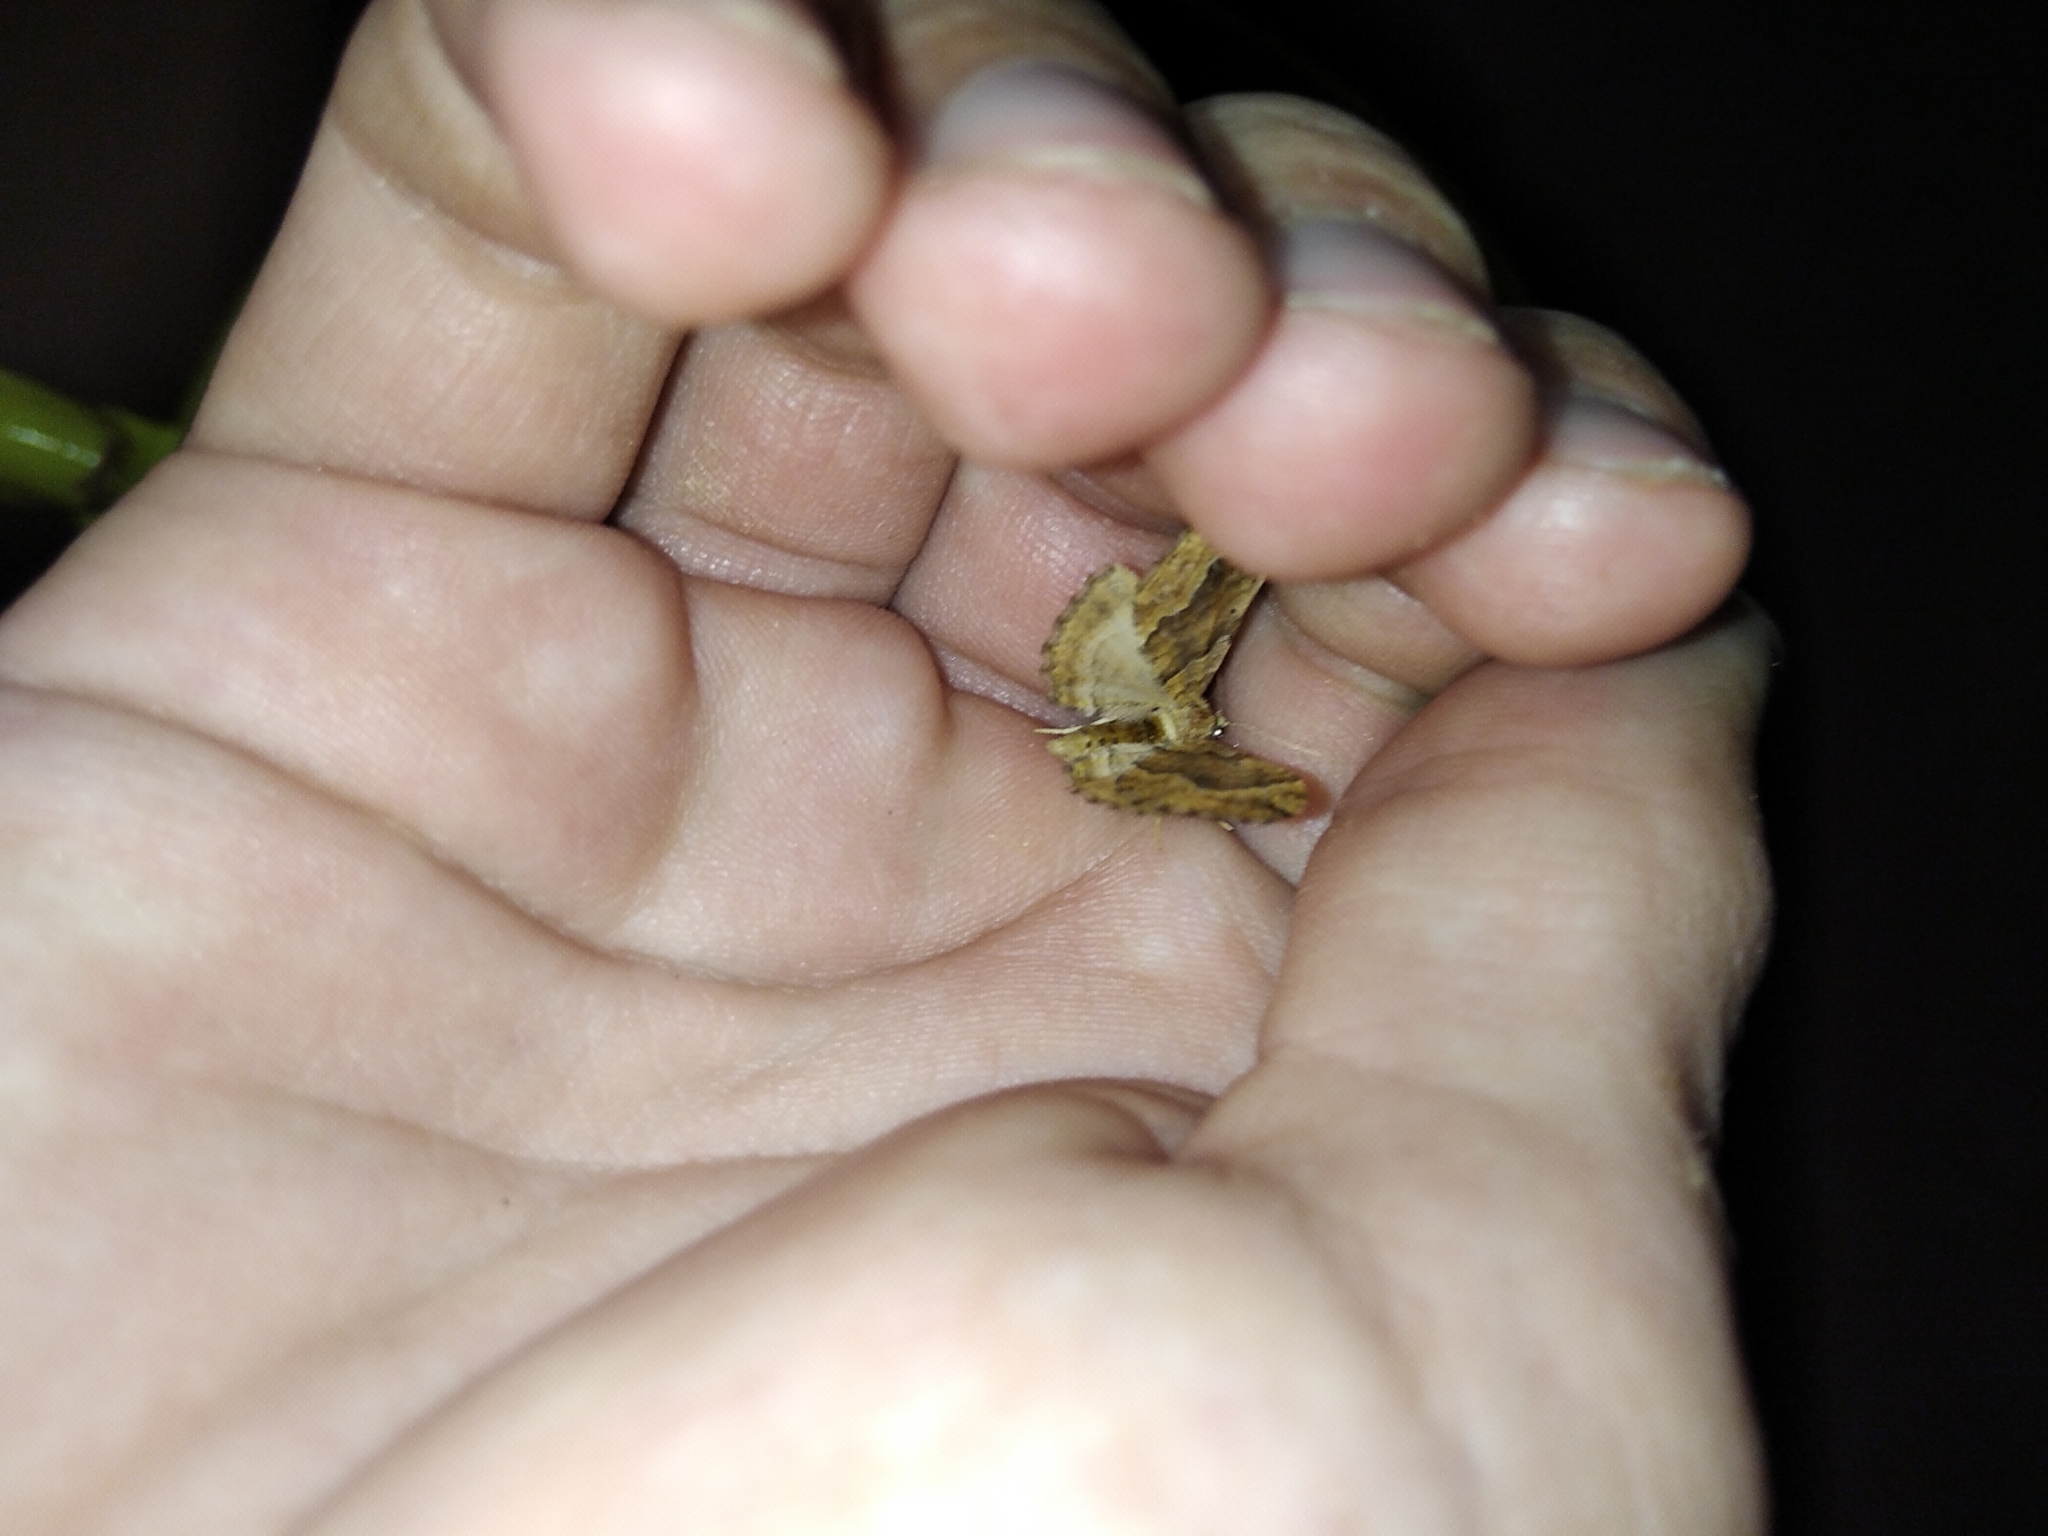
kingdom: Animalia
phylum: Arthropoda
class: Insecta
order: Lepidoptera
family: Geometridae
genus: Pelurga
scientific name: Pelurga comitata
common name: Dark spinach
